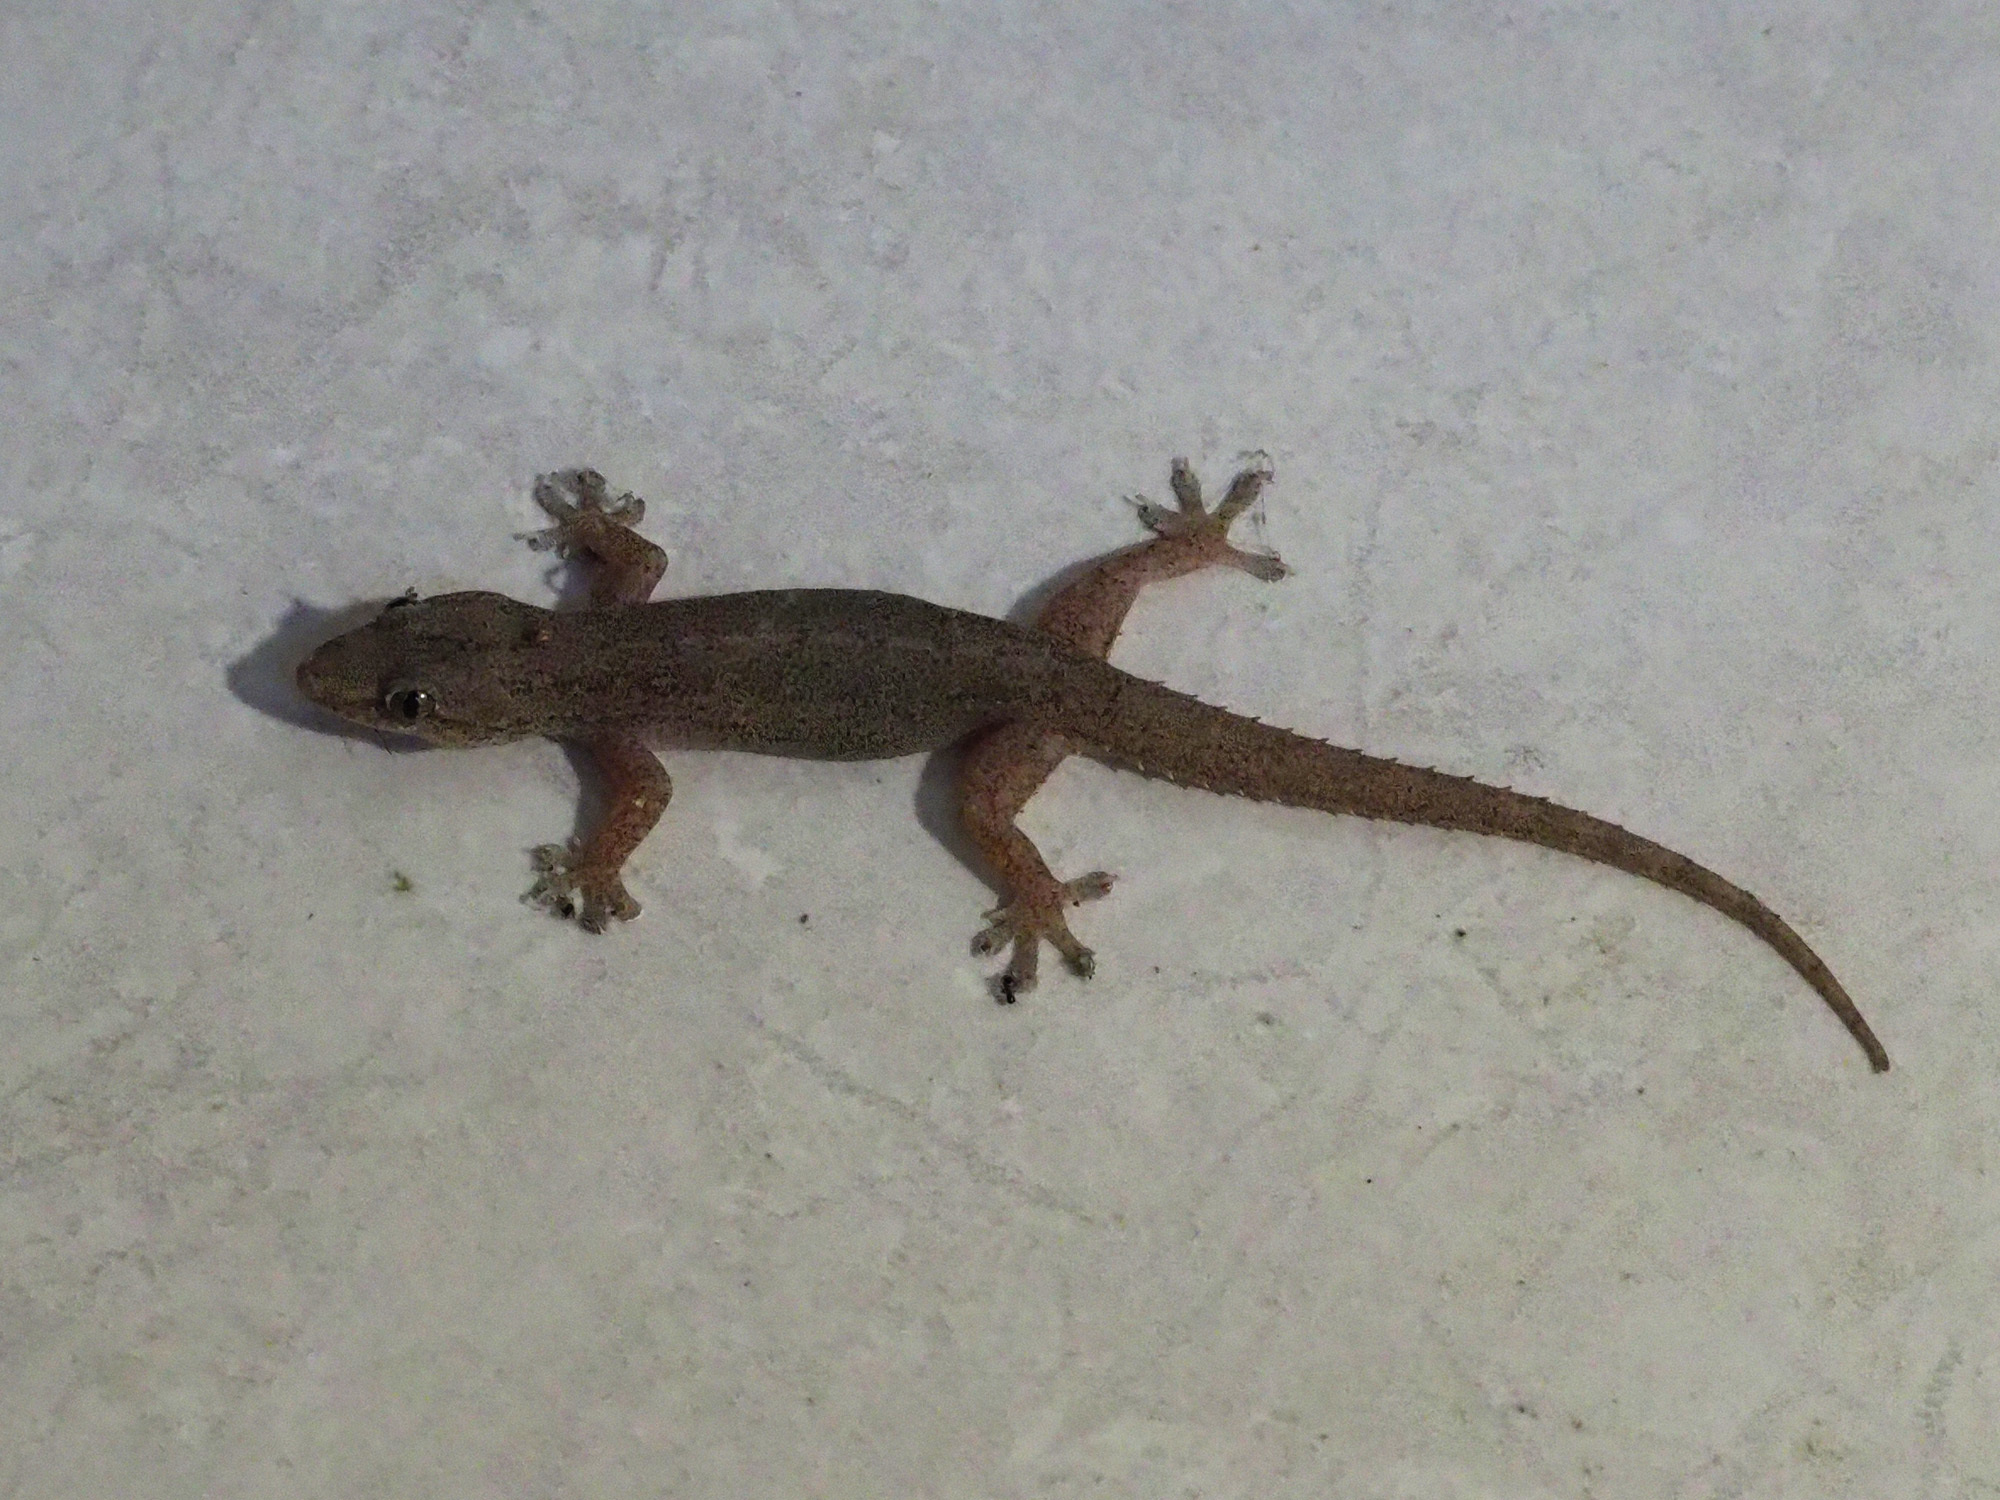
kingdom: Animalia
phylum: Chordata
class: Squamata
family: Gekkonidae
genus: Hemidactylus
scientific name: Hemidactylus frenatus
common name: Common house gecko
